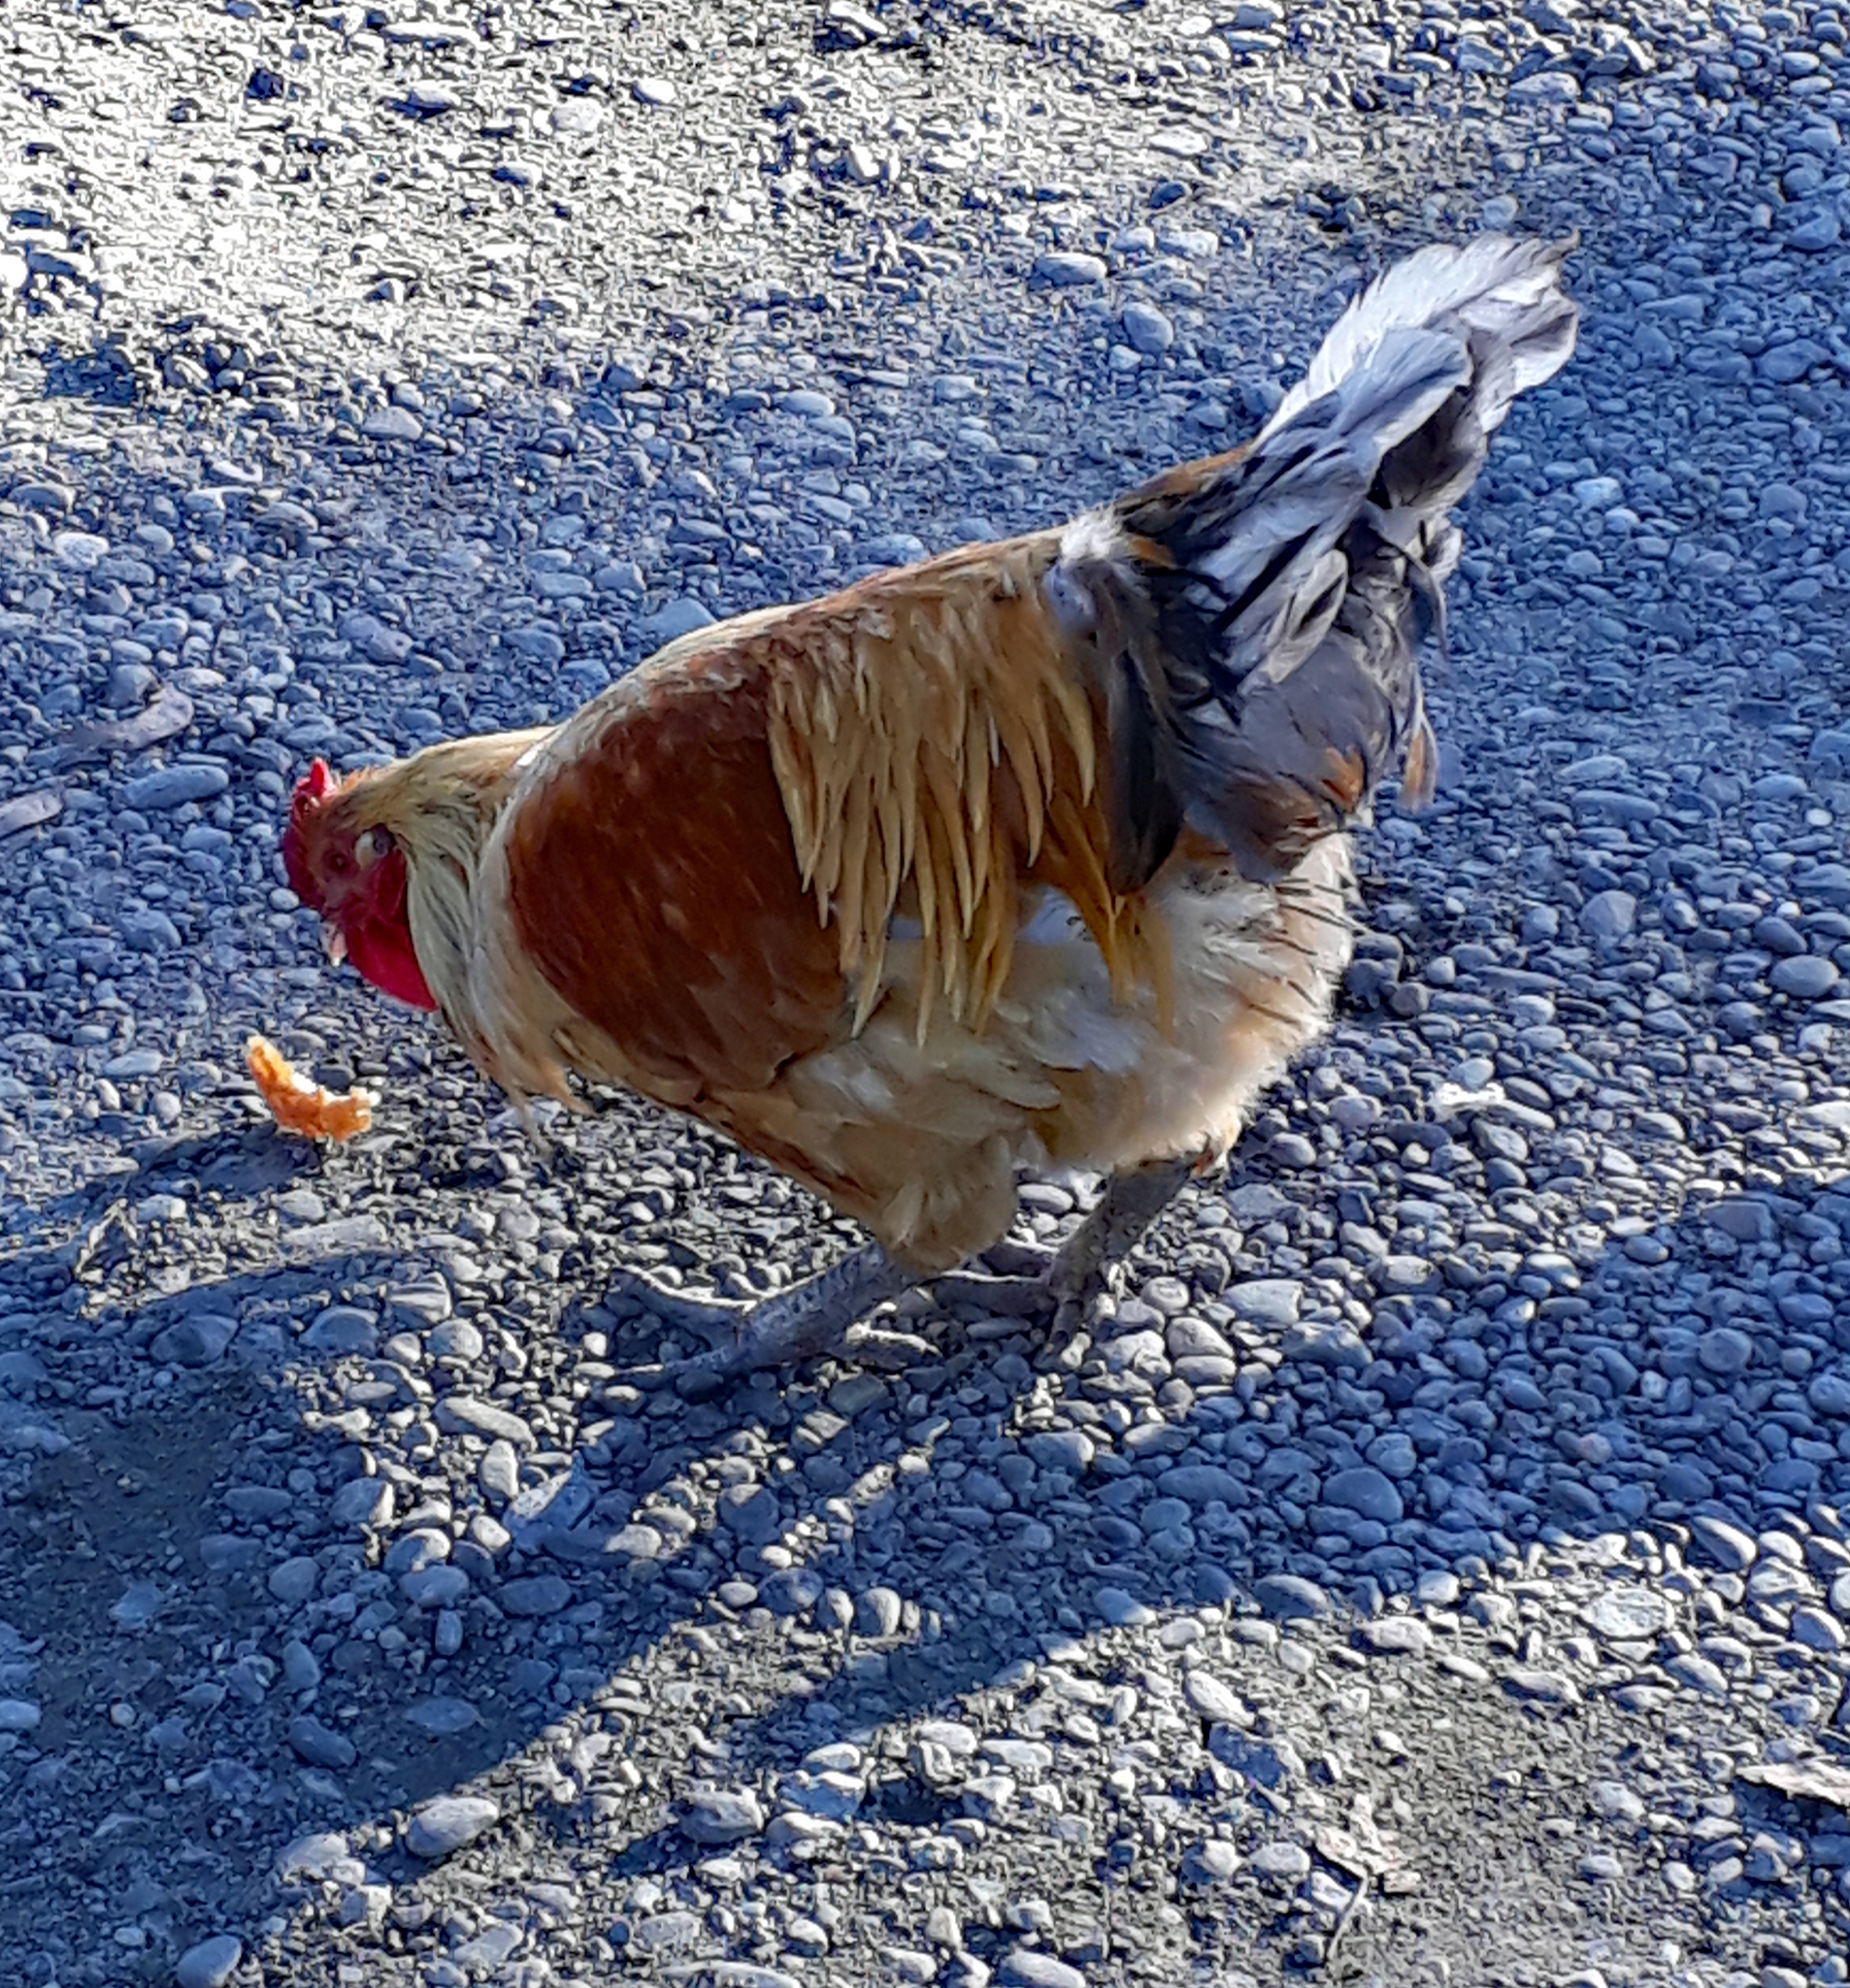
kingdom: Animalia
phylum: Chordata
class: Aves
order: Galliformes
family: Phasianidae
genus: Gallus
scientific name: Gallus gallus
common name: Red junglefowl
